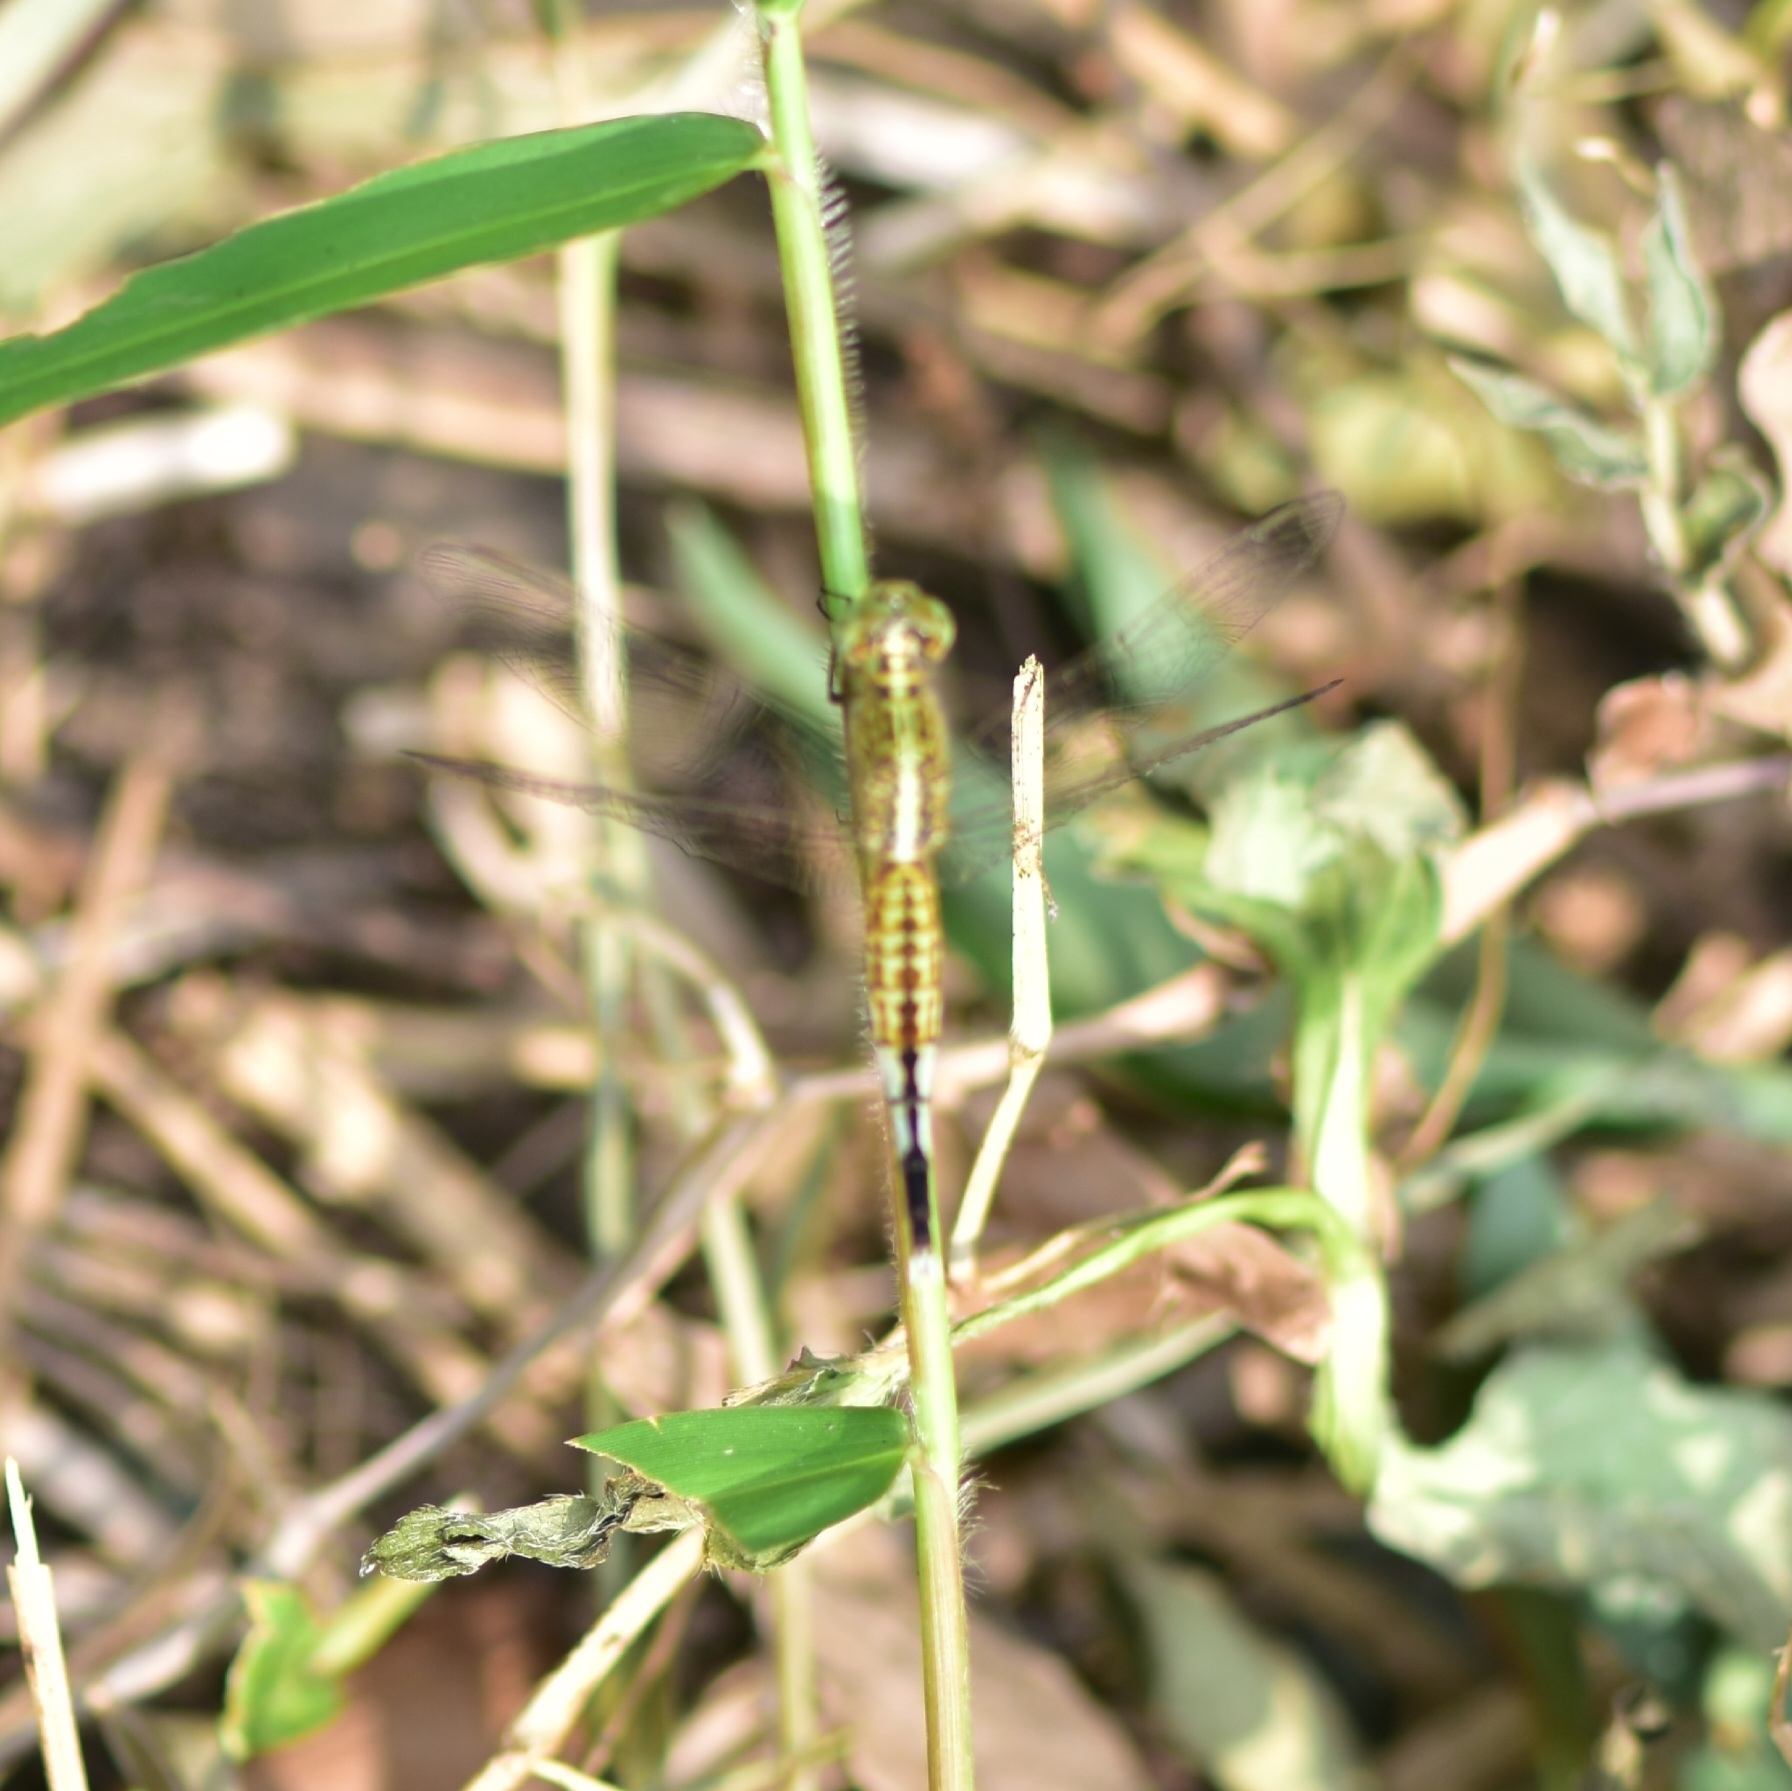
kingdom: Animalia
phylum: Arthropoda
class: Insecta
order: Odonata
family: Libellulidae
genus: Acisoma
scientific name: Acisoma panorpoides
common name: Asian pintail
